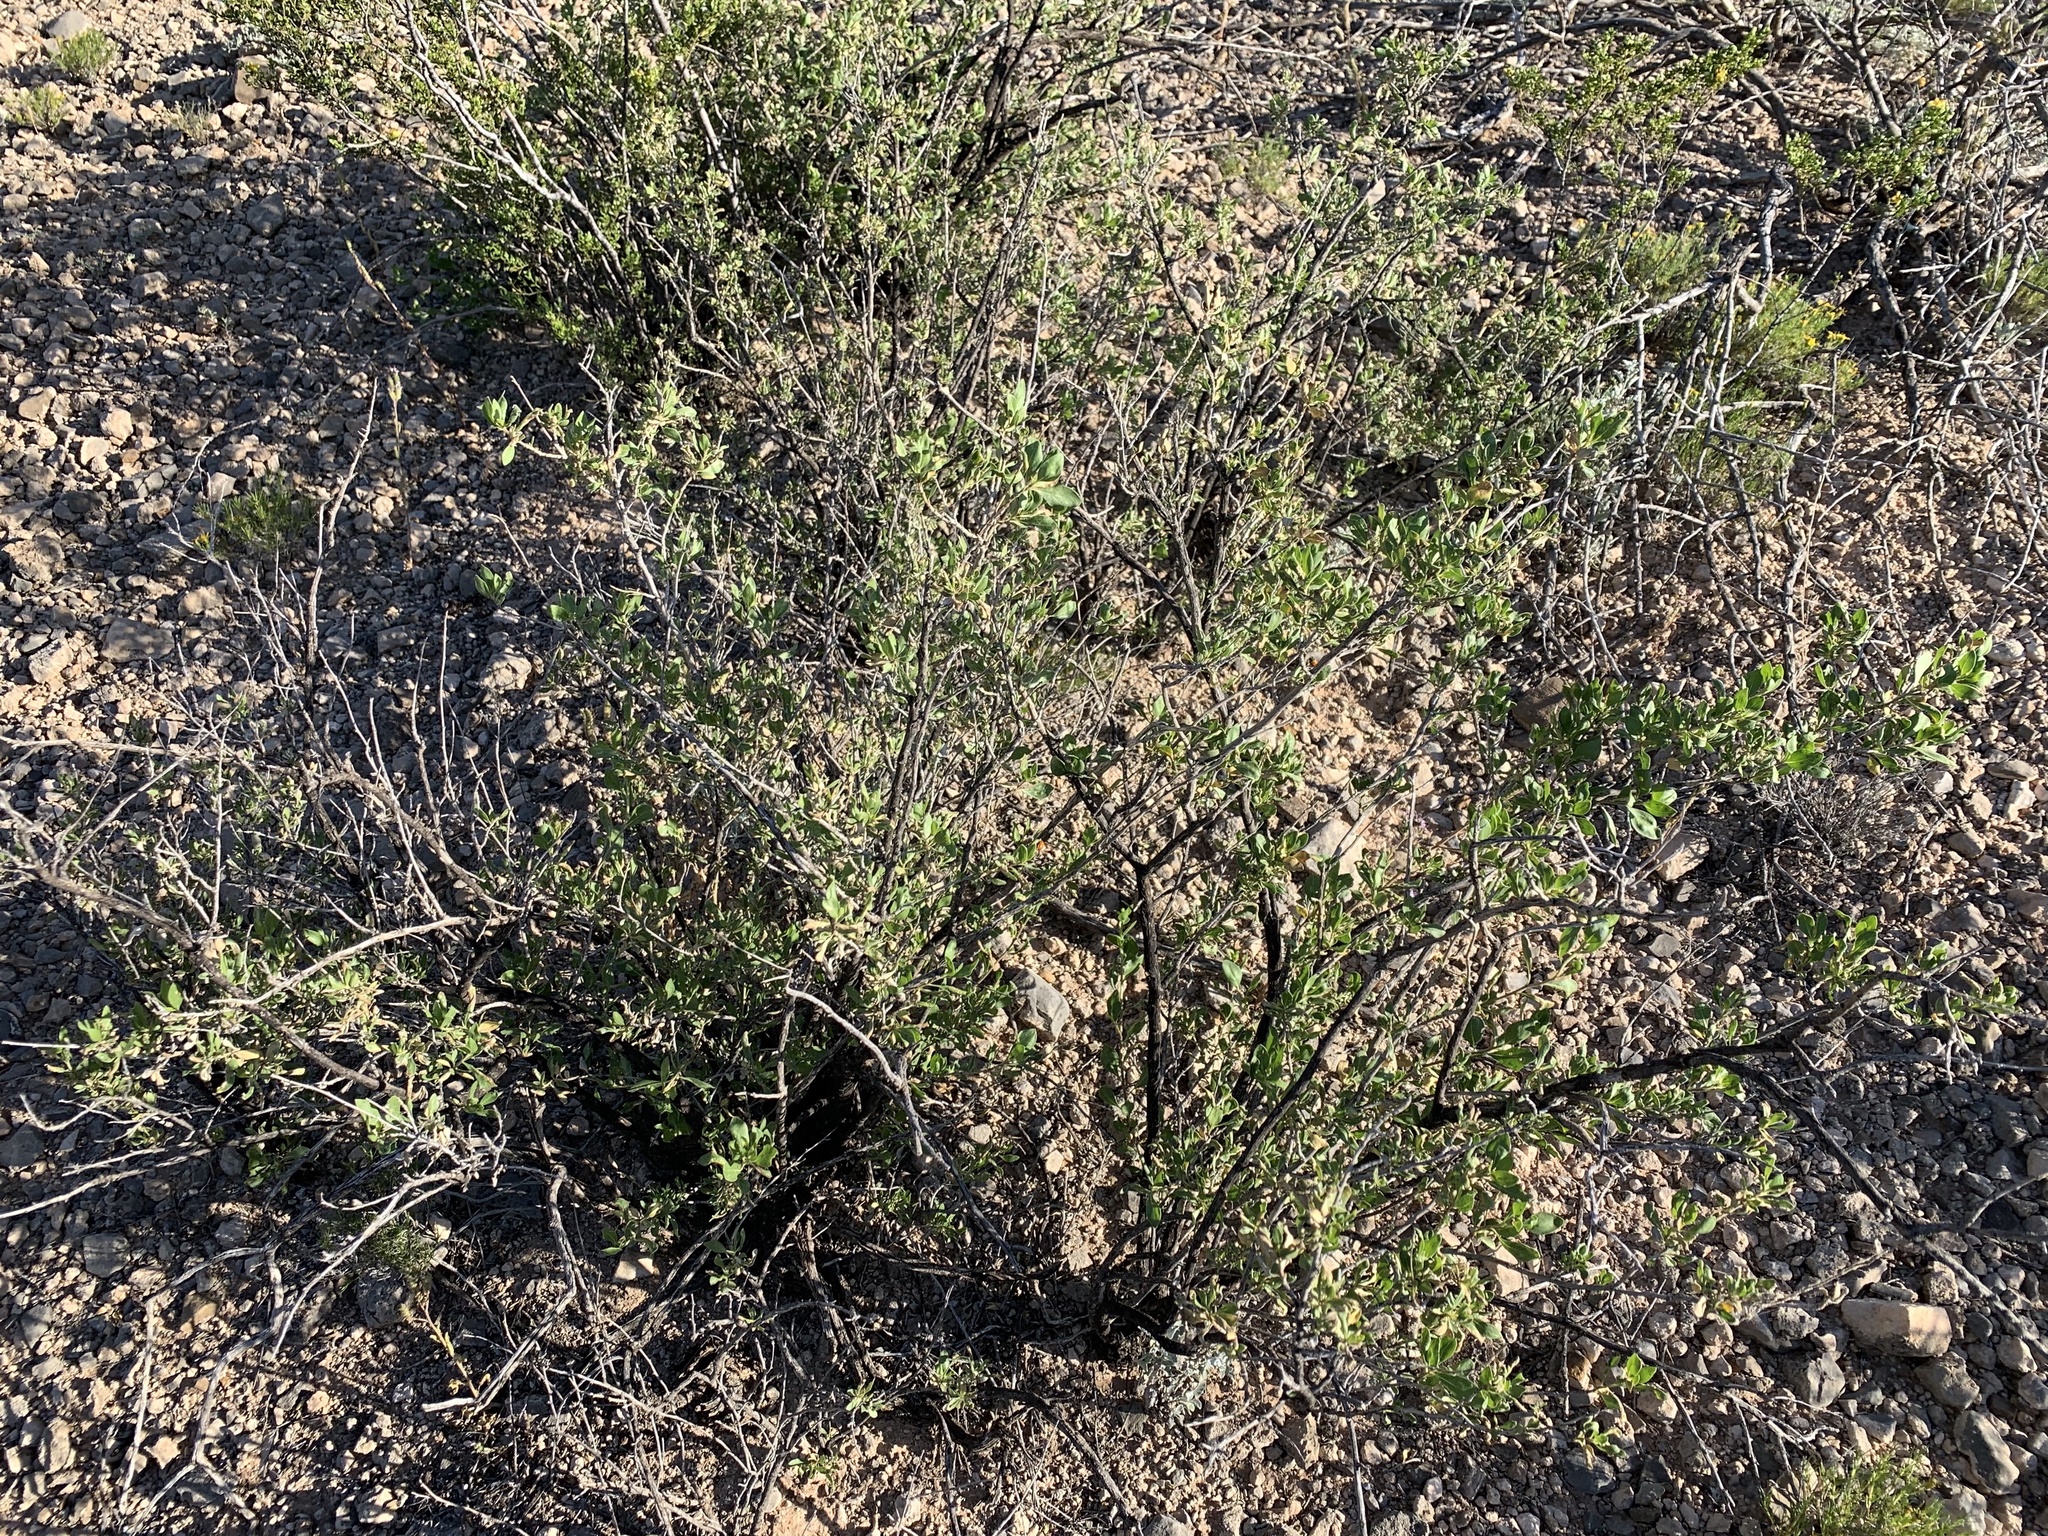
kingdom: Plantae
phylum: Tracheophyta
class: Magnoliopsida
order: Asterales
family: Asteraceae
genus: Flourensia
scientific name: Flourensia cernua
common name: Varnishbush
